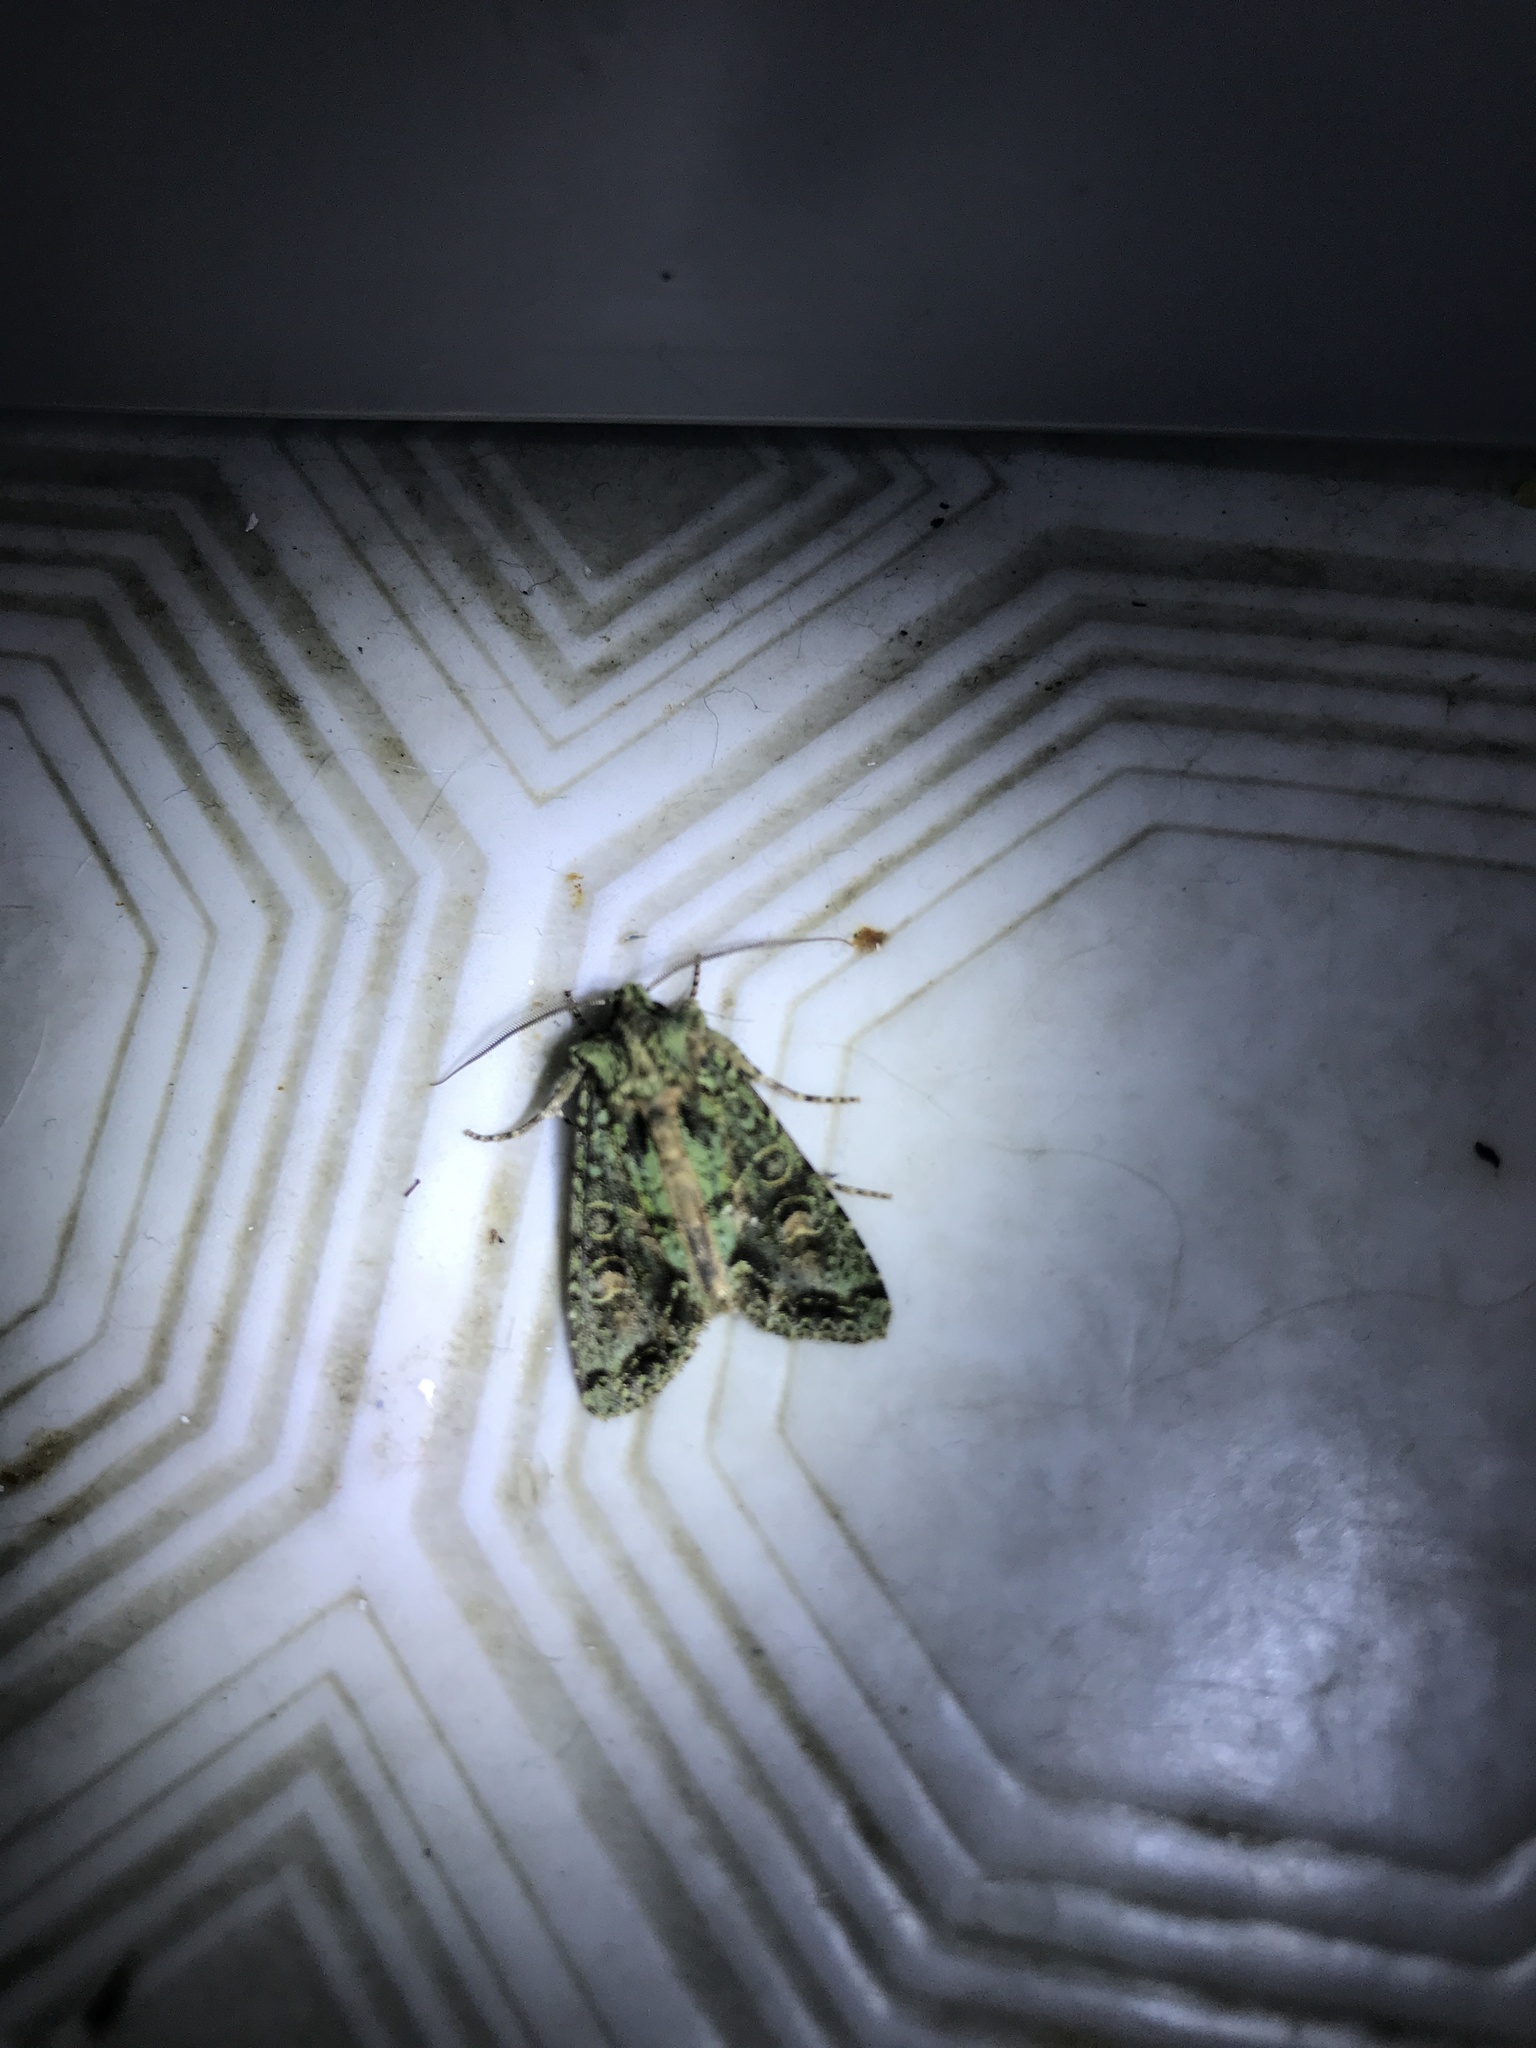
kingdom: Animalia
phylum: Arthropoda
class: Insecta
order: Lepidoptera
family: Noctuidae
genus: Ichneutica
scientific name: Ichneutica
